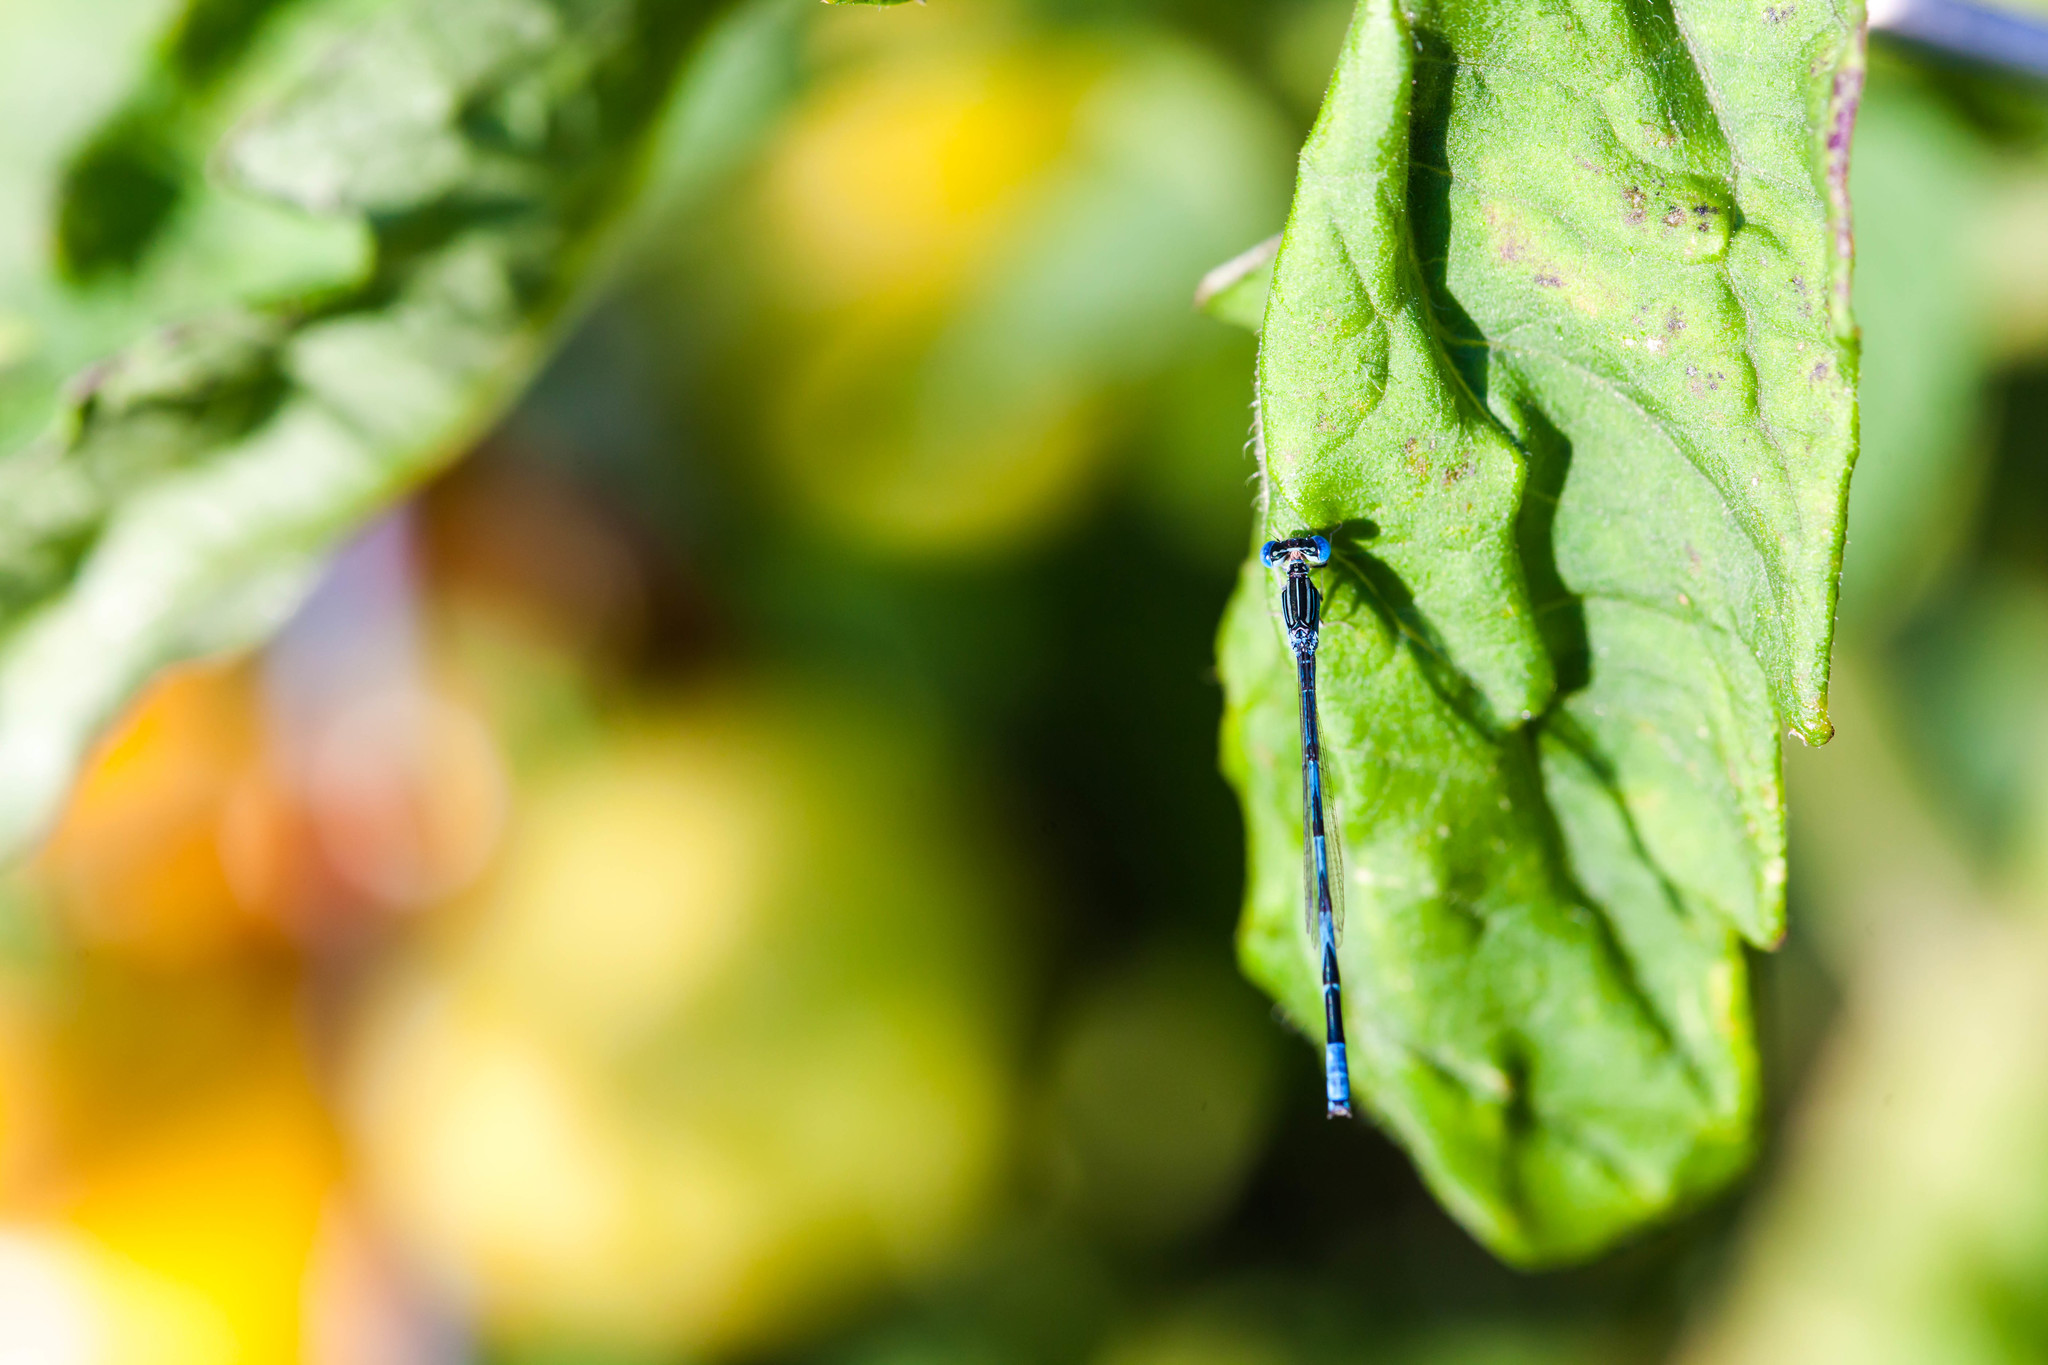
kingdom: Animalia
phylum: Arthropoda
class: Insecta
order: Odonata
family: Coenagrionidae
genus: Enallagma
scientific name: Enallagma basidens
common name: Double-striped bluet
